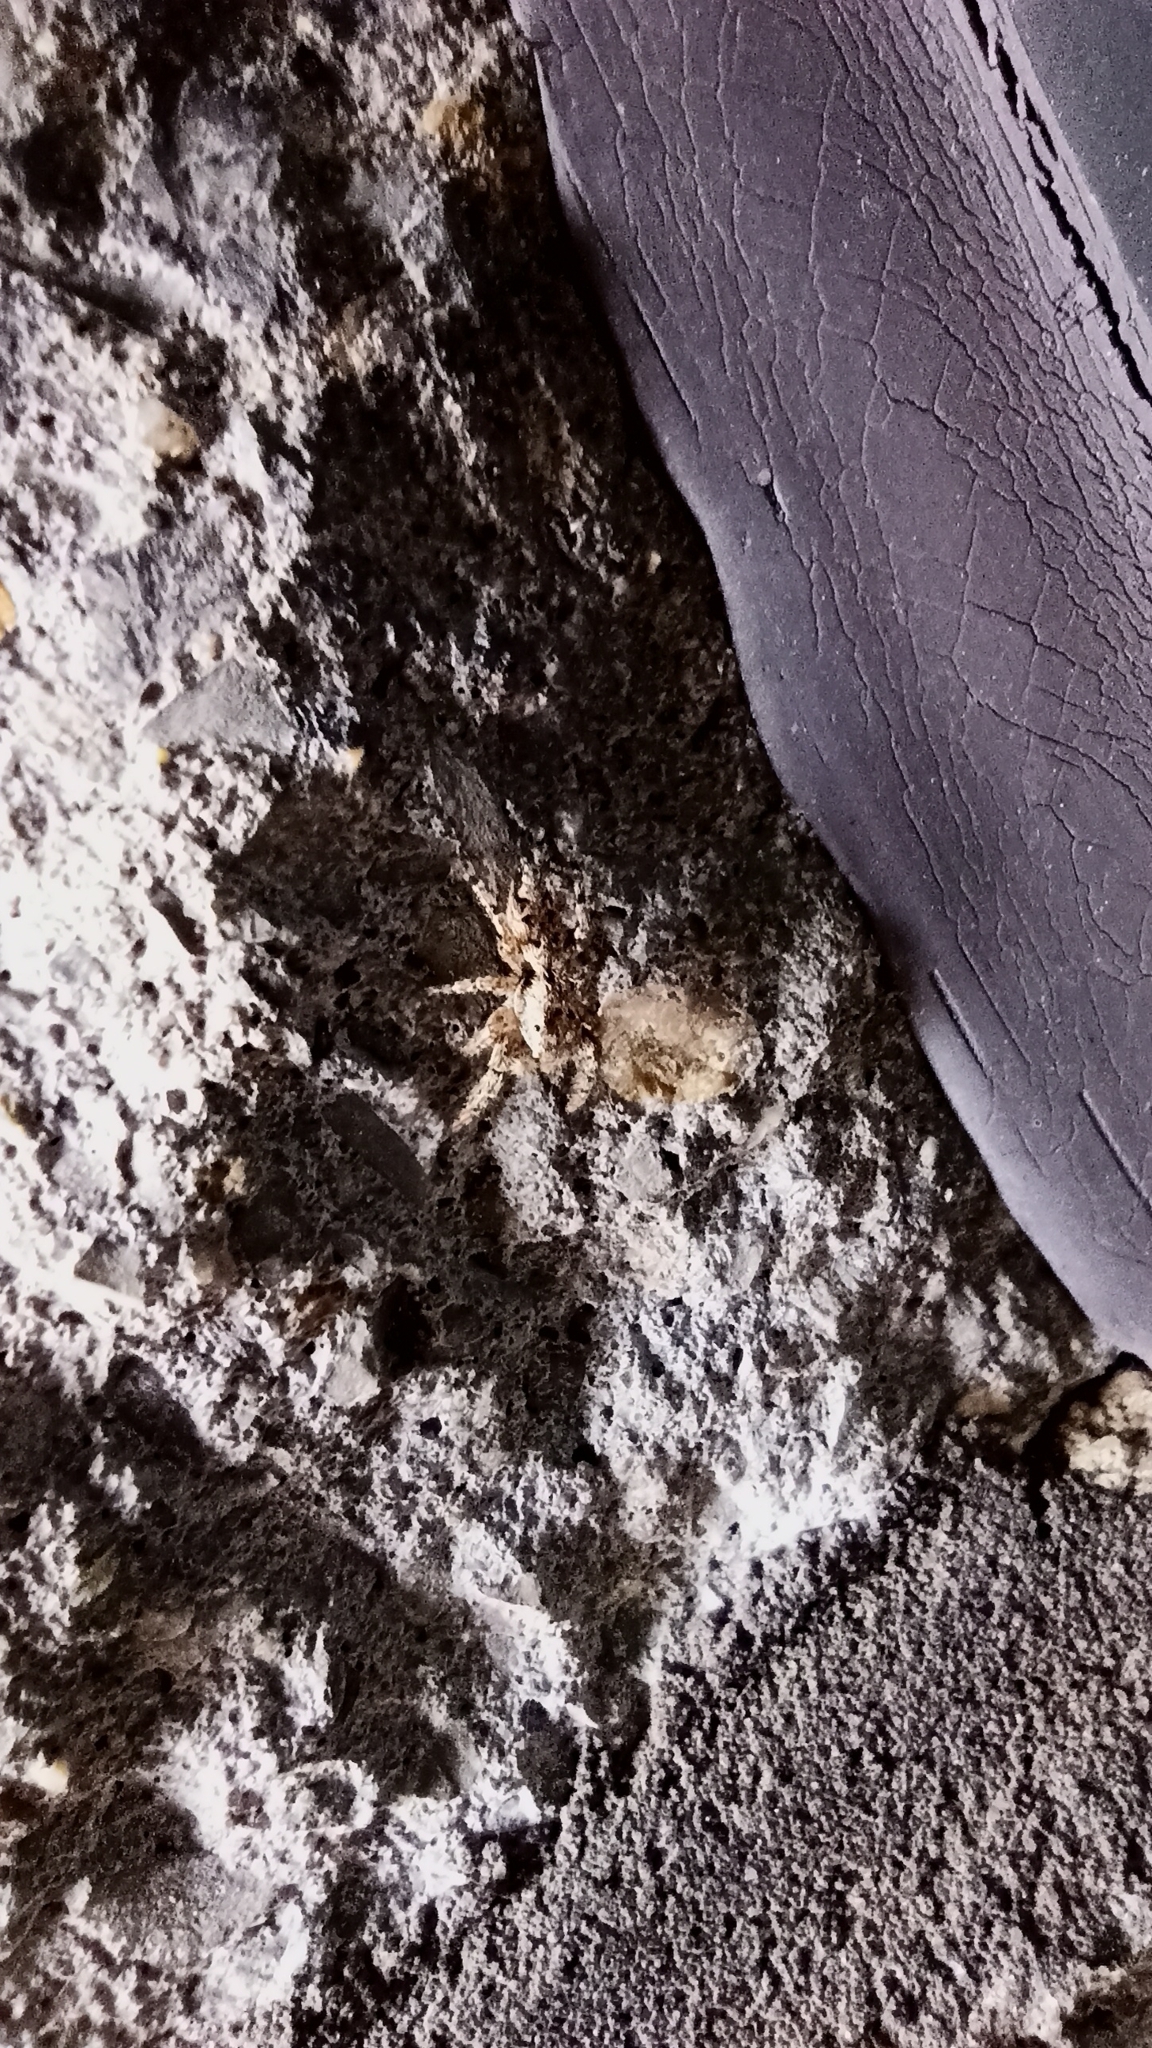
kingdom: Animalia
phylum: Arthropoda
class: Arachnida
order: Araneae
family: Salticidae
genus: Marpissa
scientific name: Marpissa muscosa
